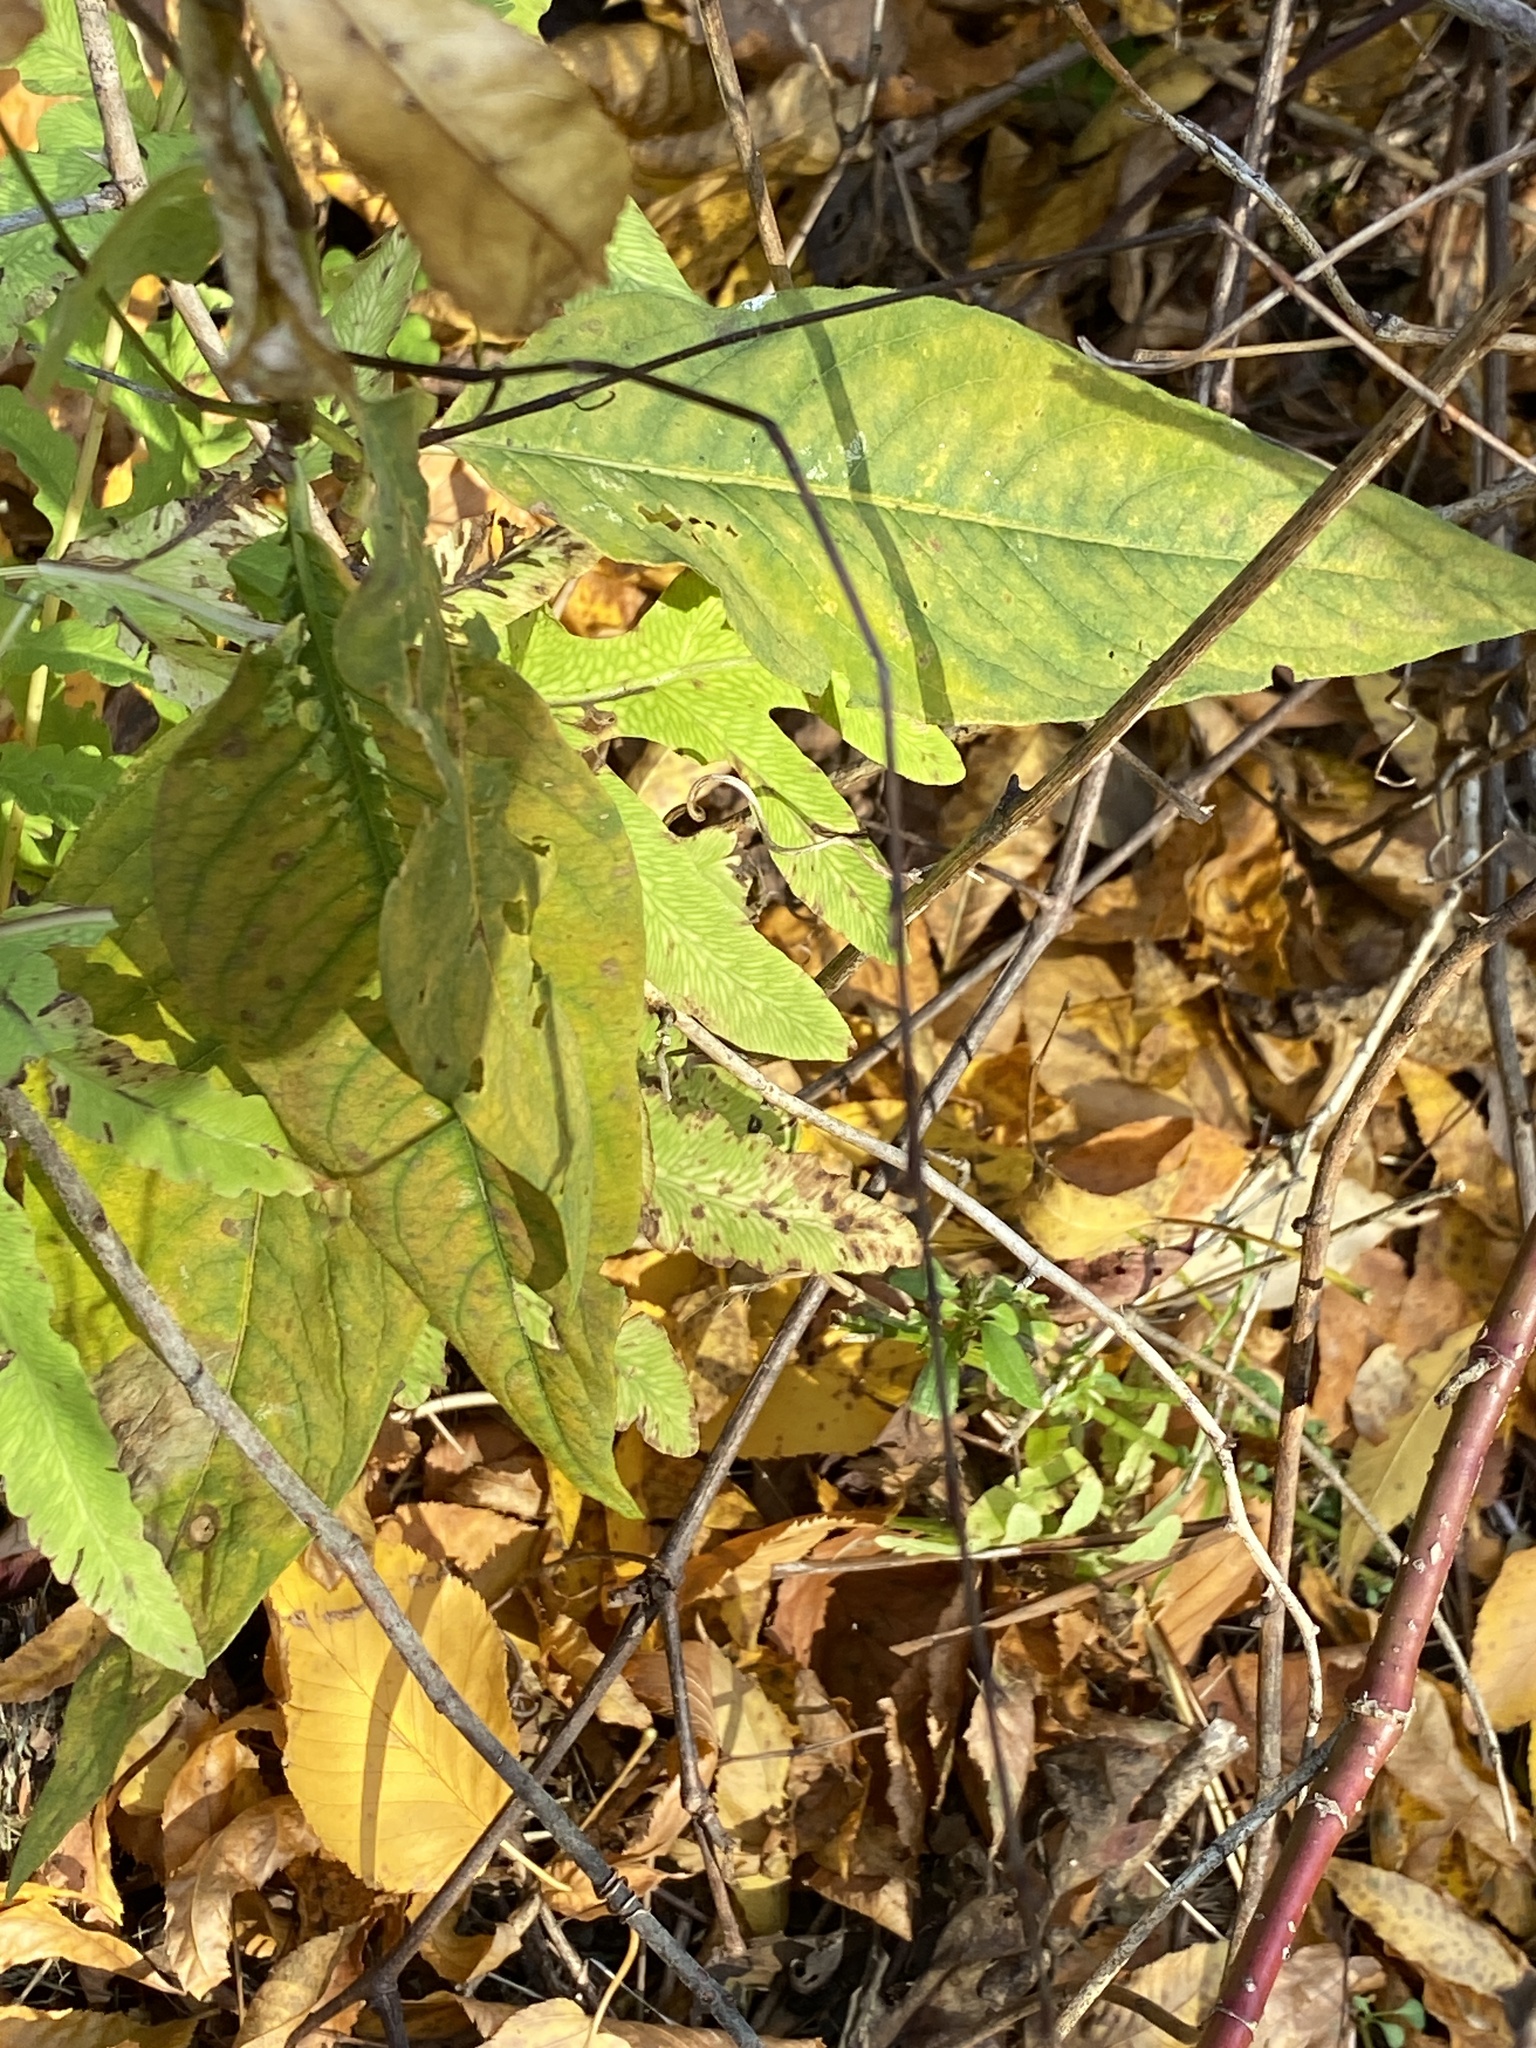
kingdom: Plantae
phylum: Tracheophyta
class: Magnoliopsida
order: Caryophyllales
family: Polygonaceae
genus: Persicaria
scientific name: Persicaria virginiana
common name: Jumpseed
